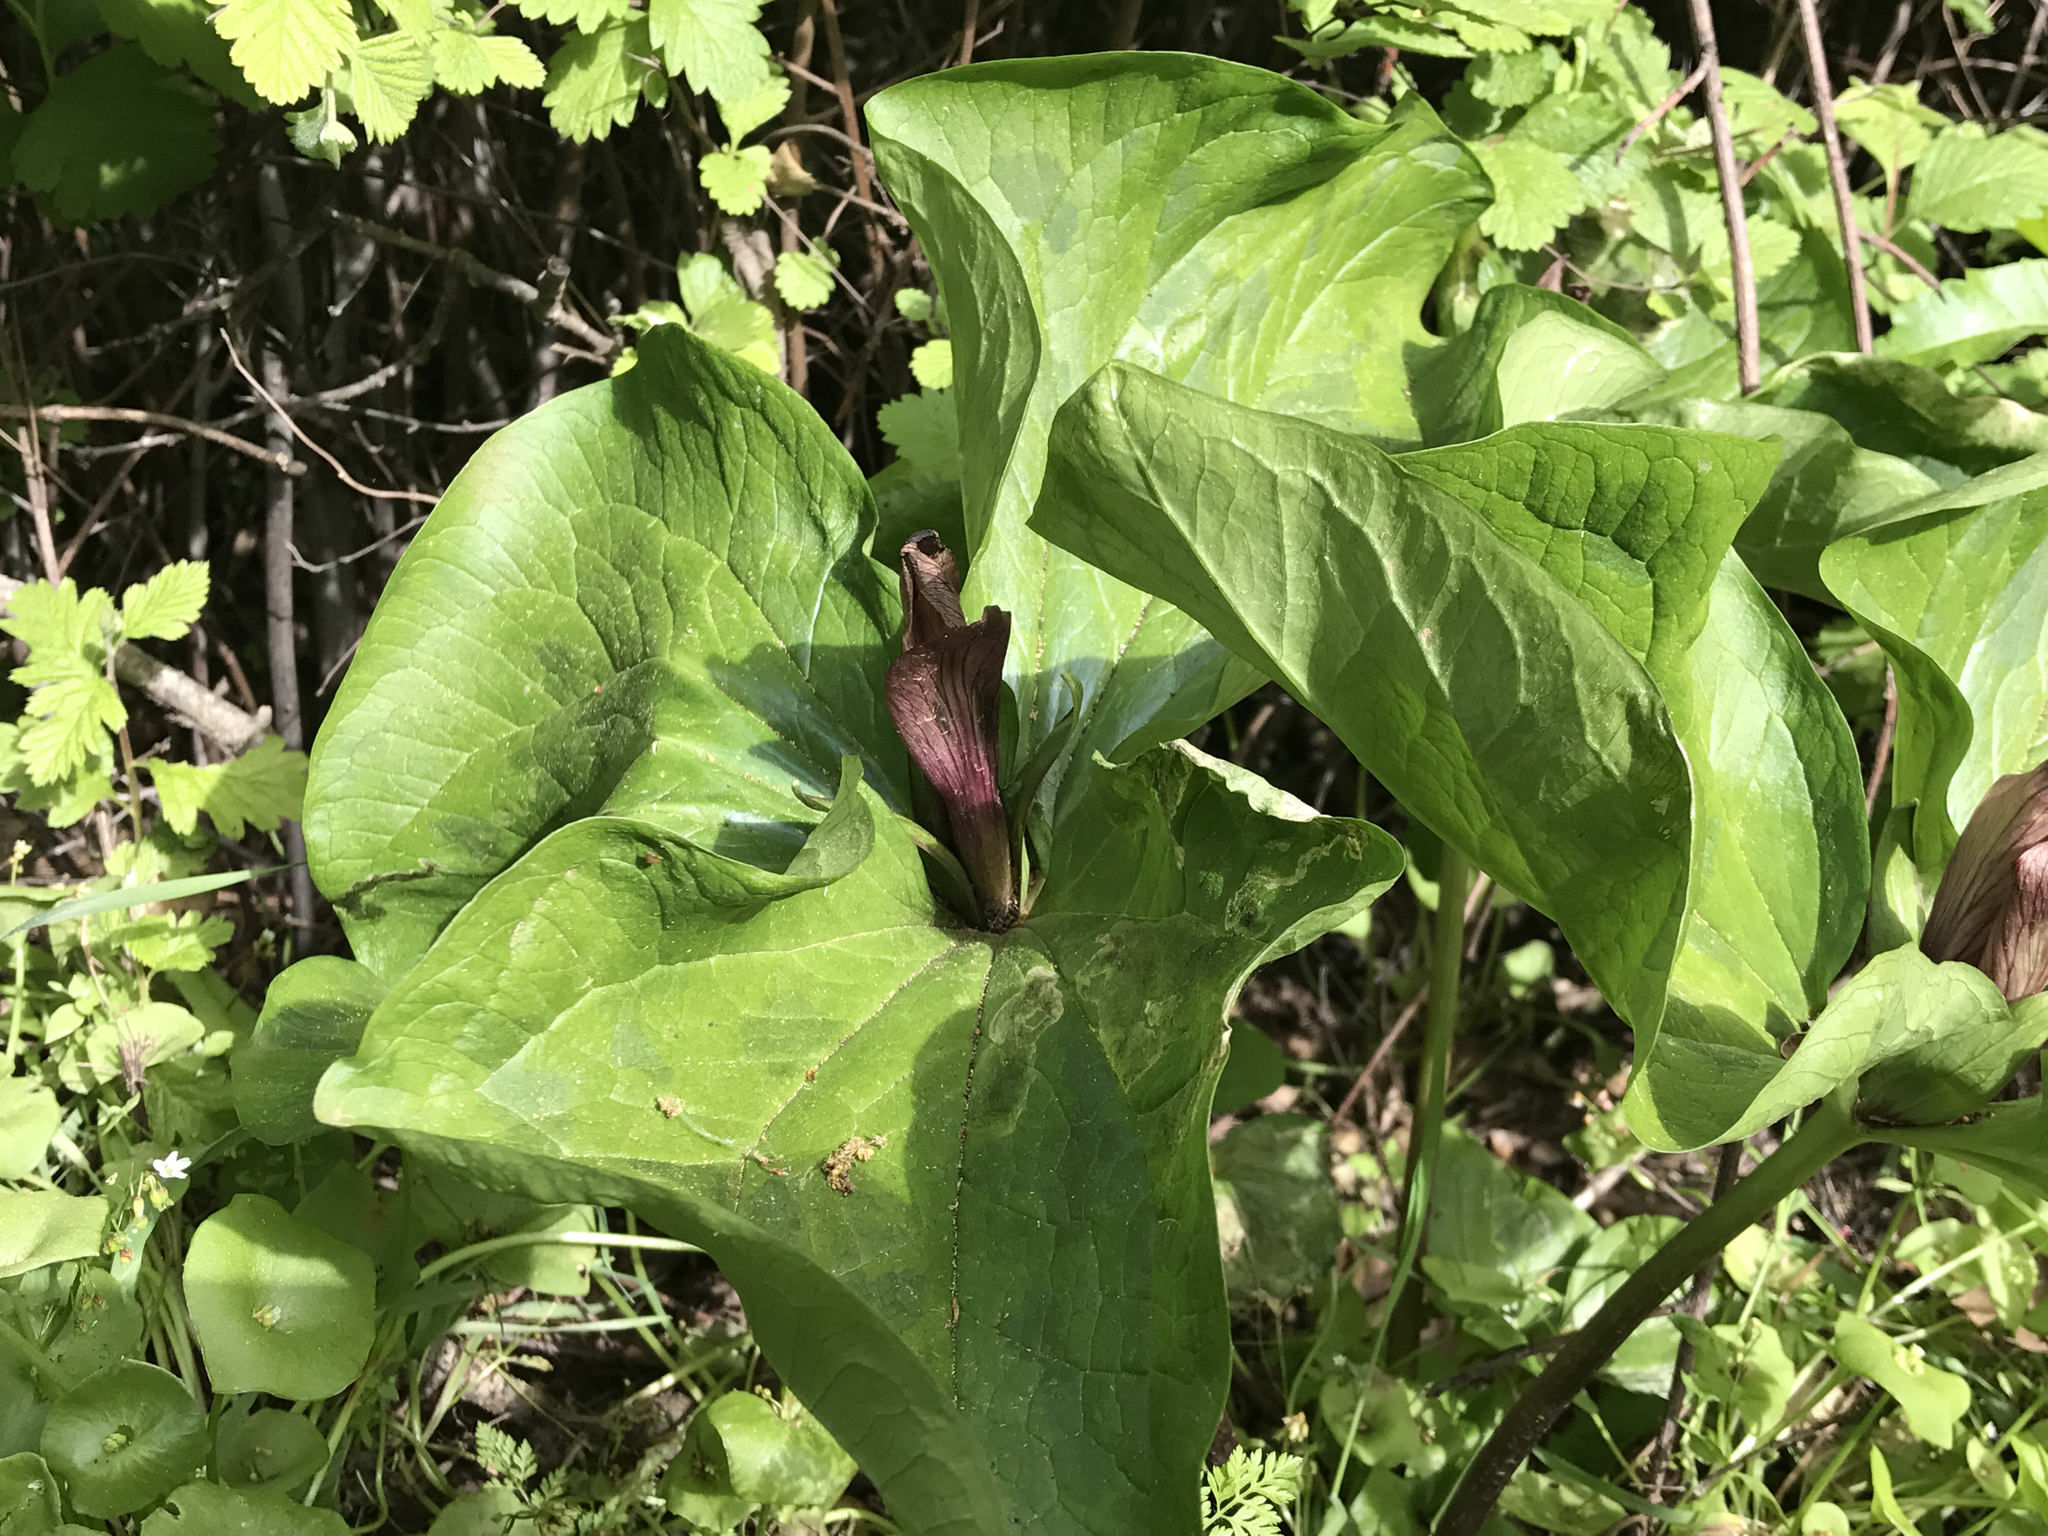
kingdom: Plantae
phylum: Tracheophyta
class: Liliopsida
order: Liliales
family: Melanthiaceae
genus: Trillium
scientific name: Trillium chloropetalum
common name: Giant trillium
